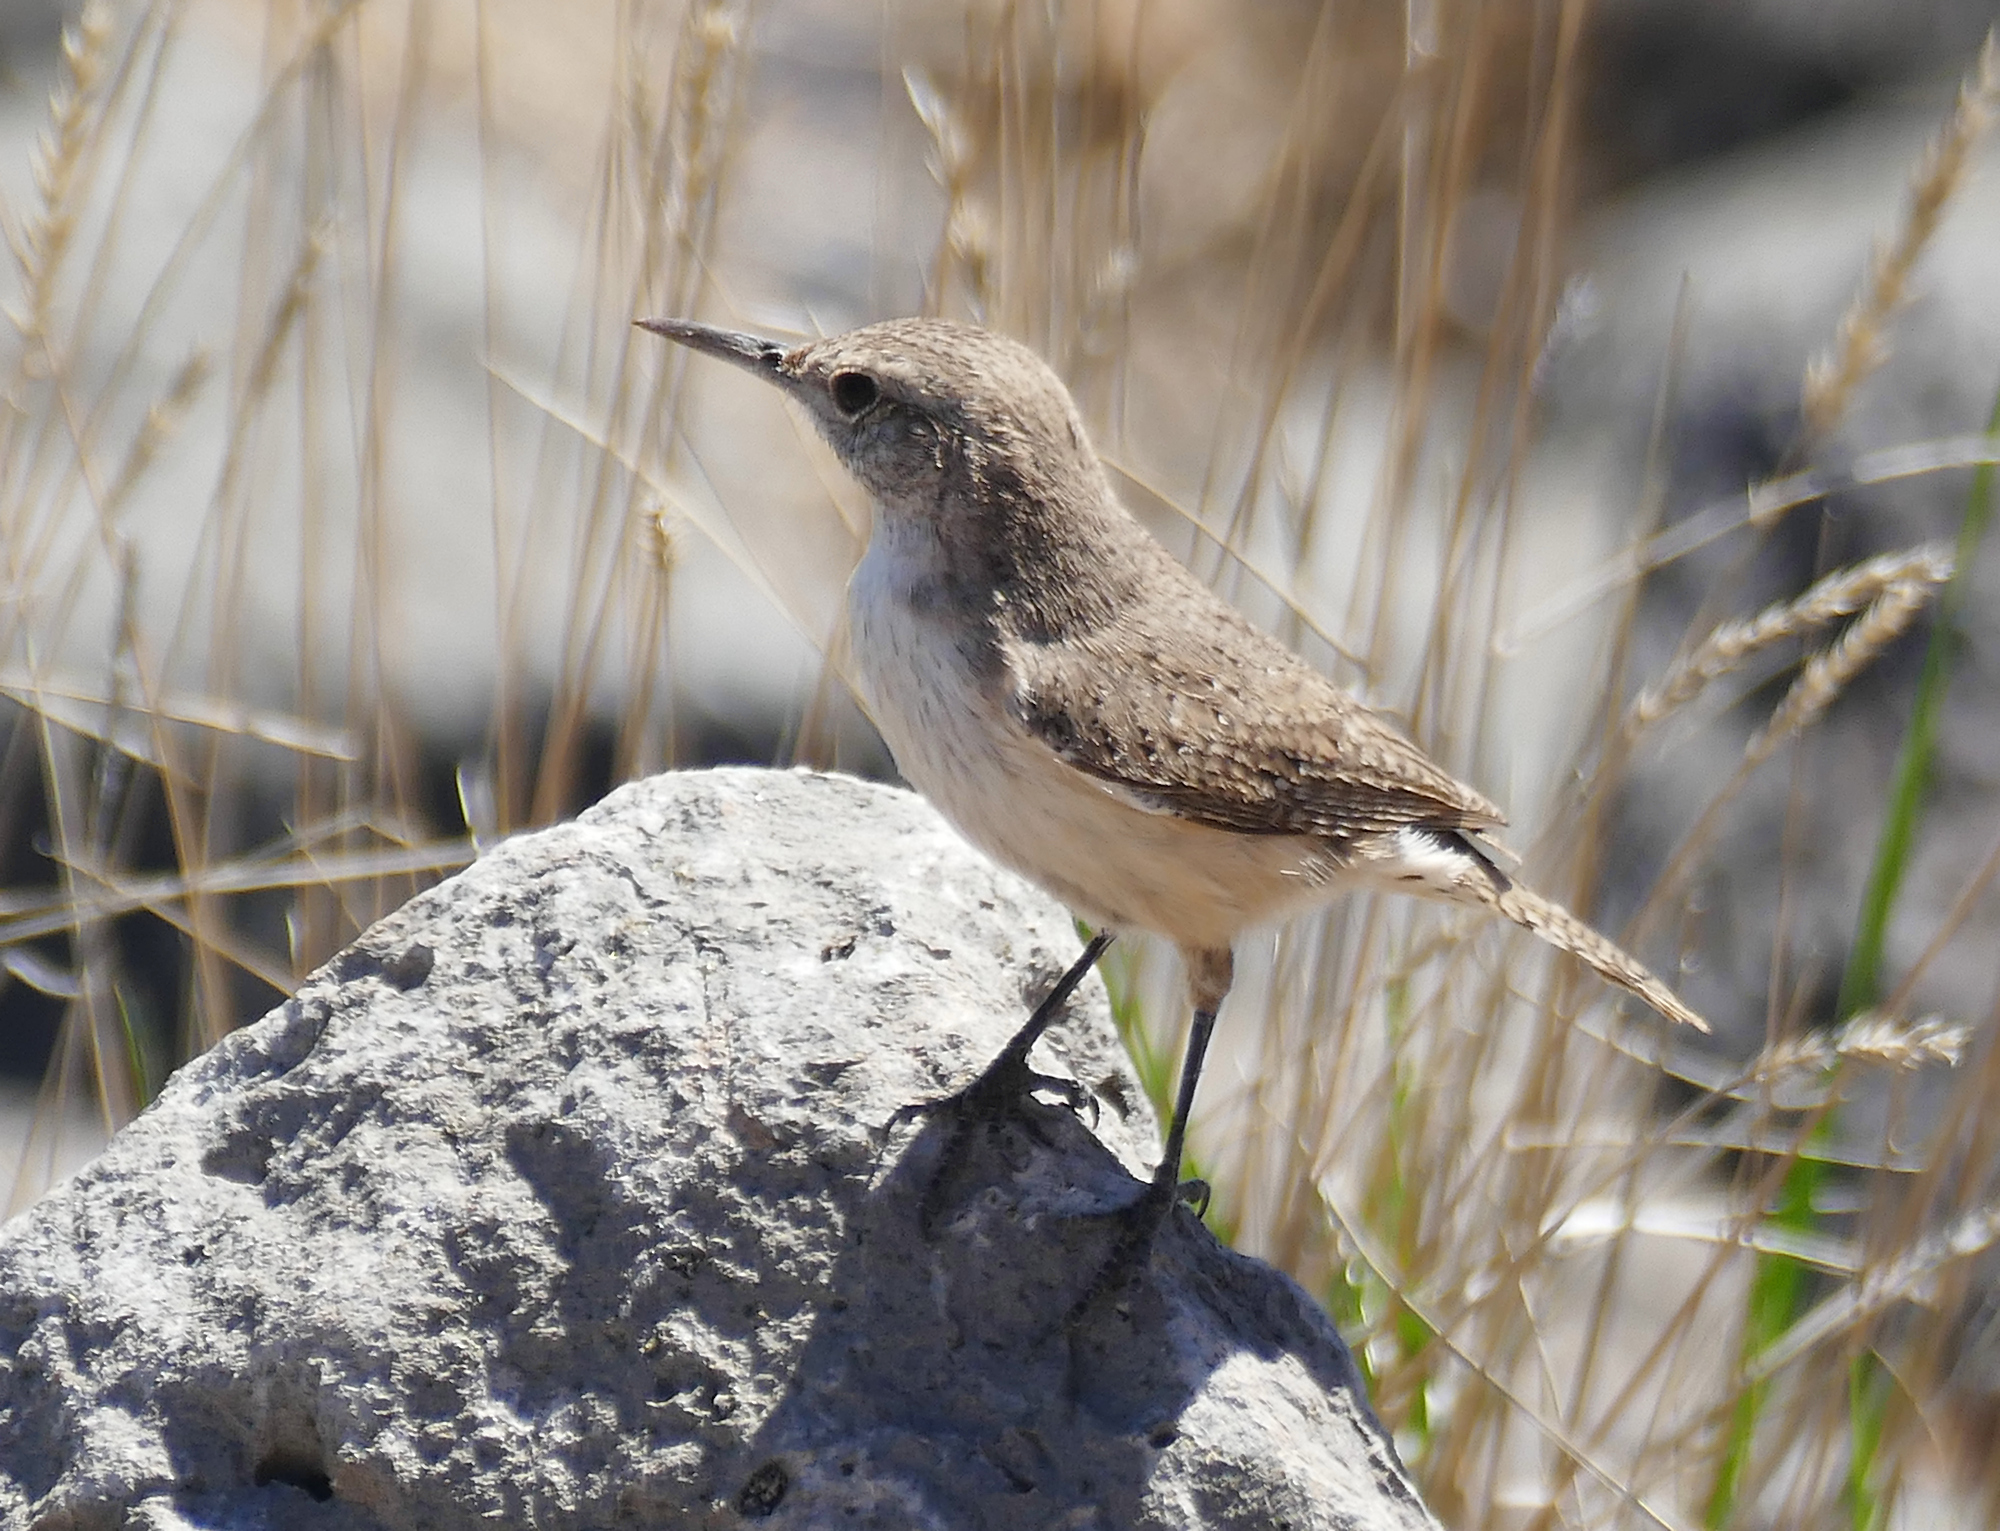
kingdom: Animalia
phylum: Chordata
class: Aves
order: Passeriformes
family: Troglodytidae
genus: Salpinctes
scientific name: Salpinctes obsoletus
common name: Rock wren
